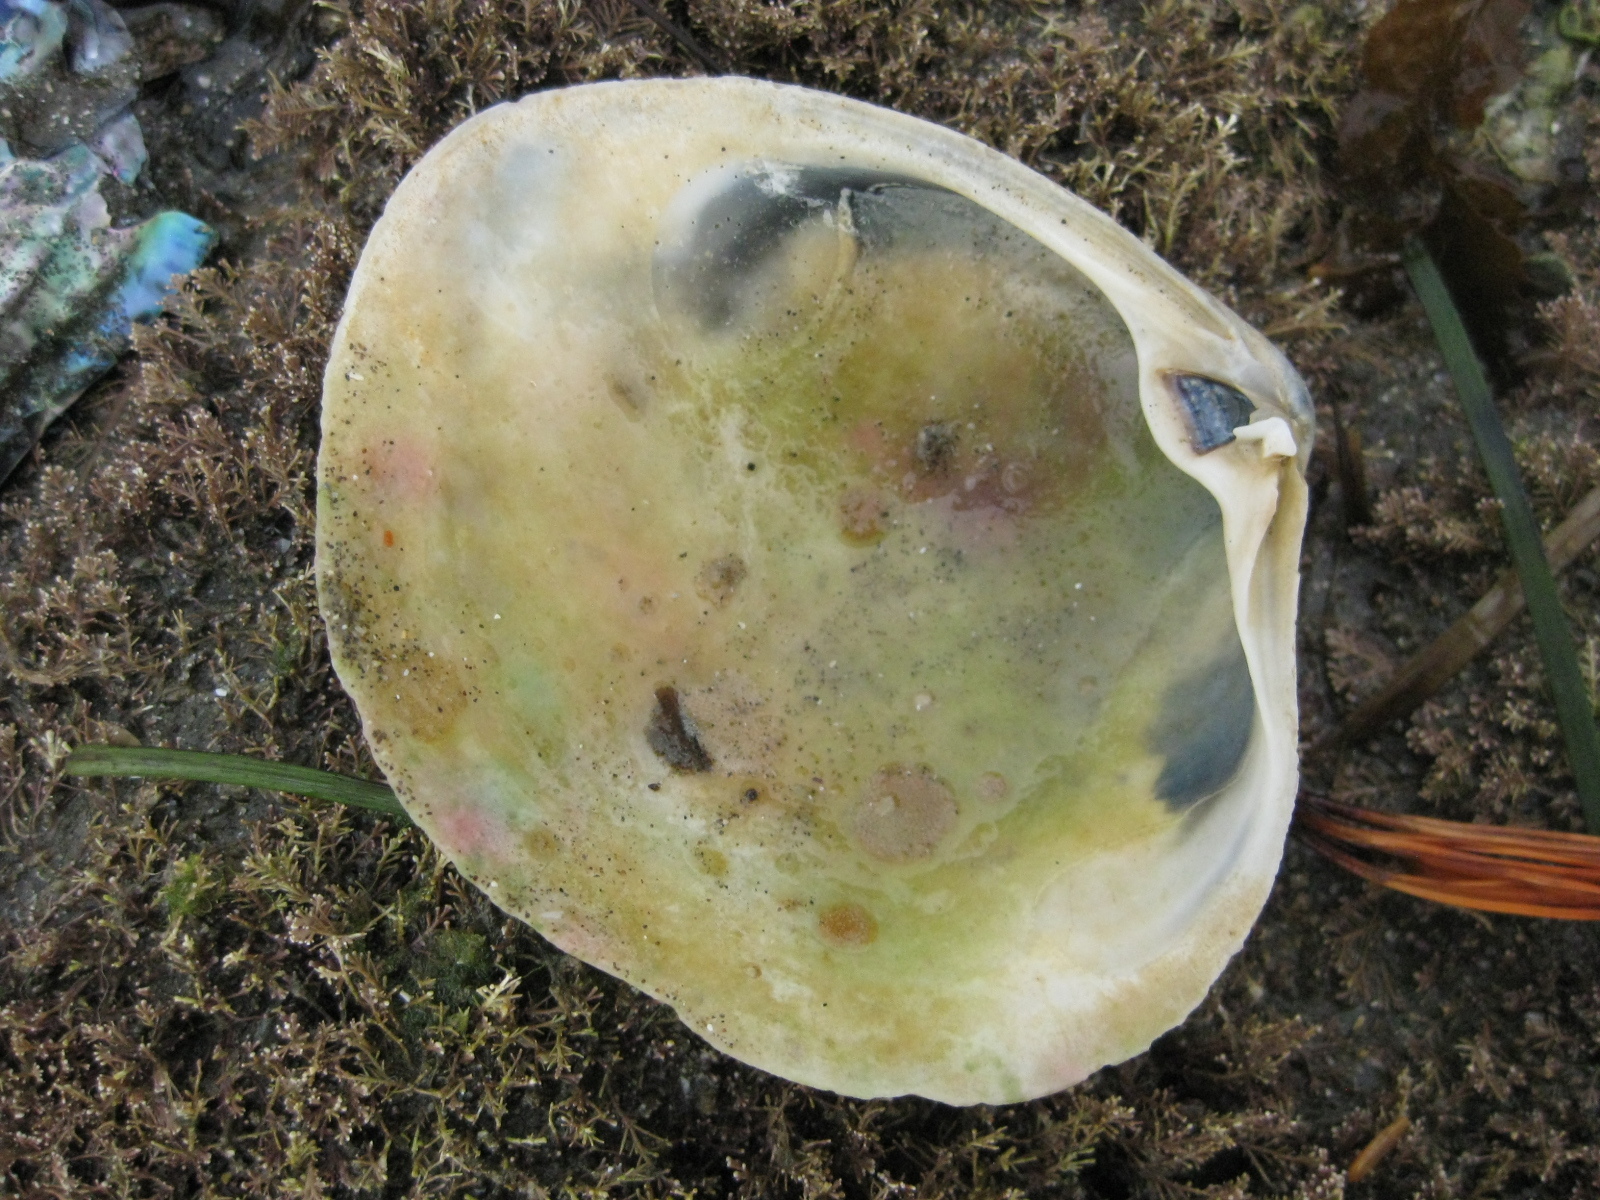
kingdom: Animalia
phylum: Mollusca
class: Bivalvia
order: Venerida
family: Mactridae
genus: Cyclomactra
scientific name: Cyclomactra ovata
